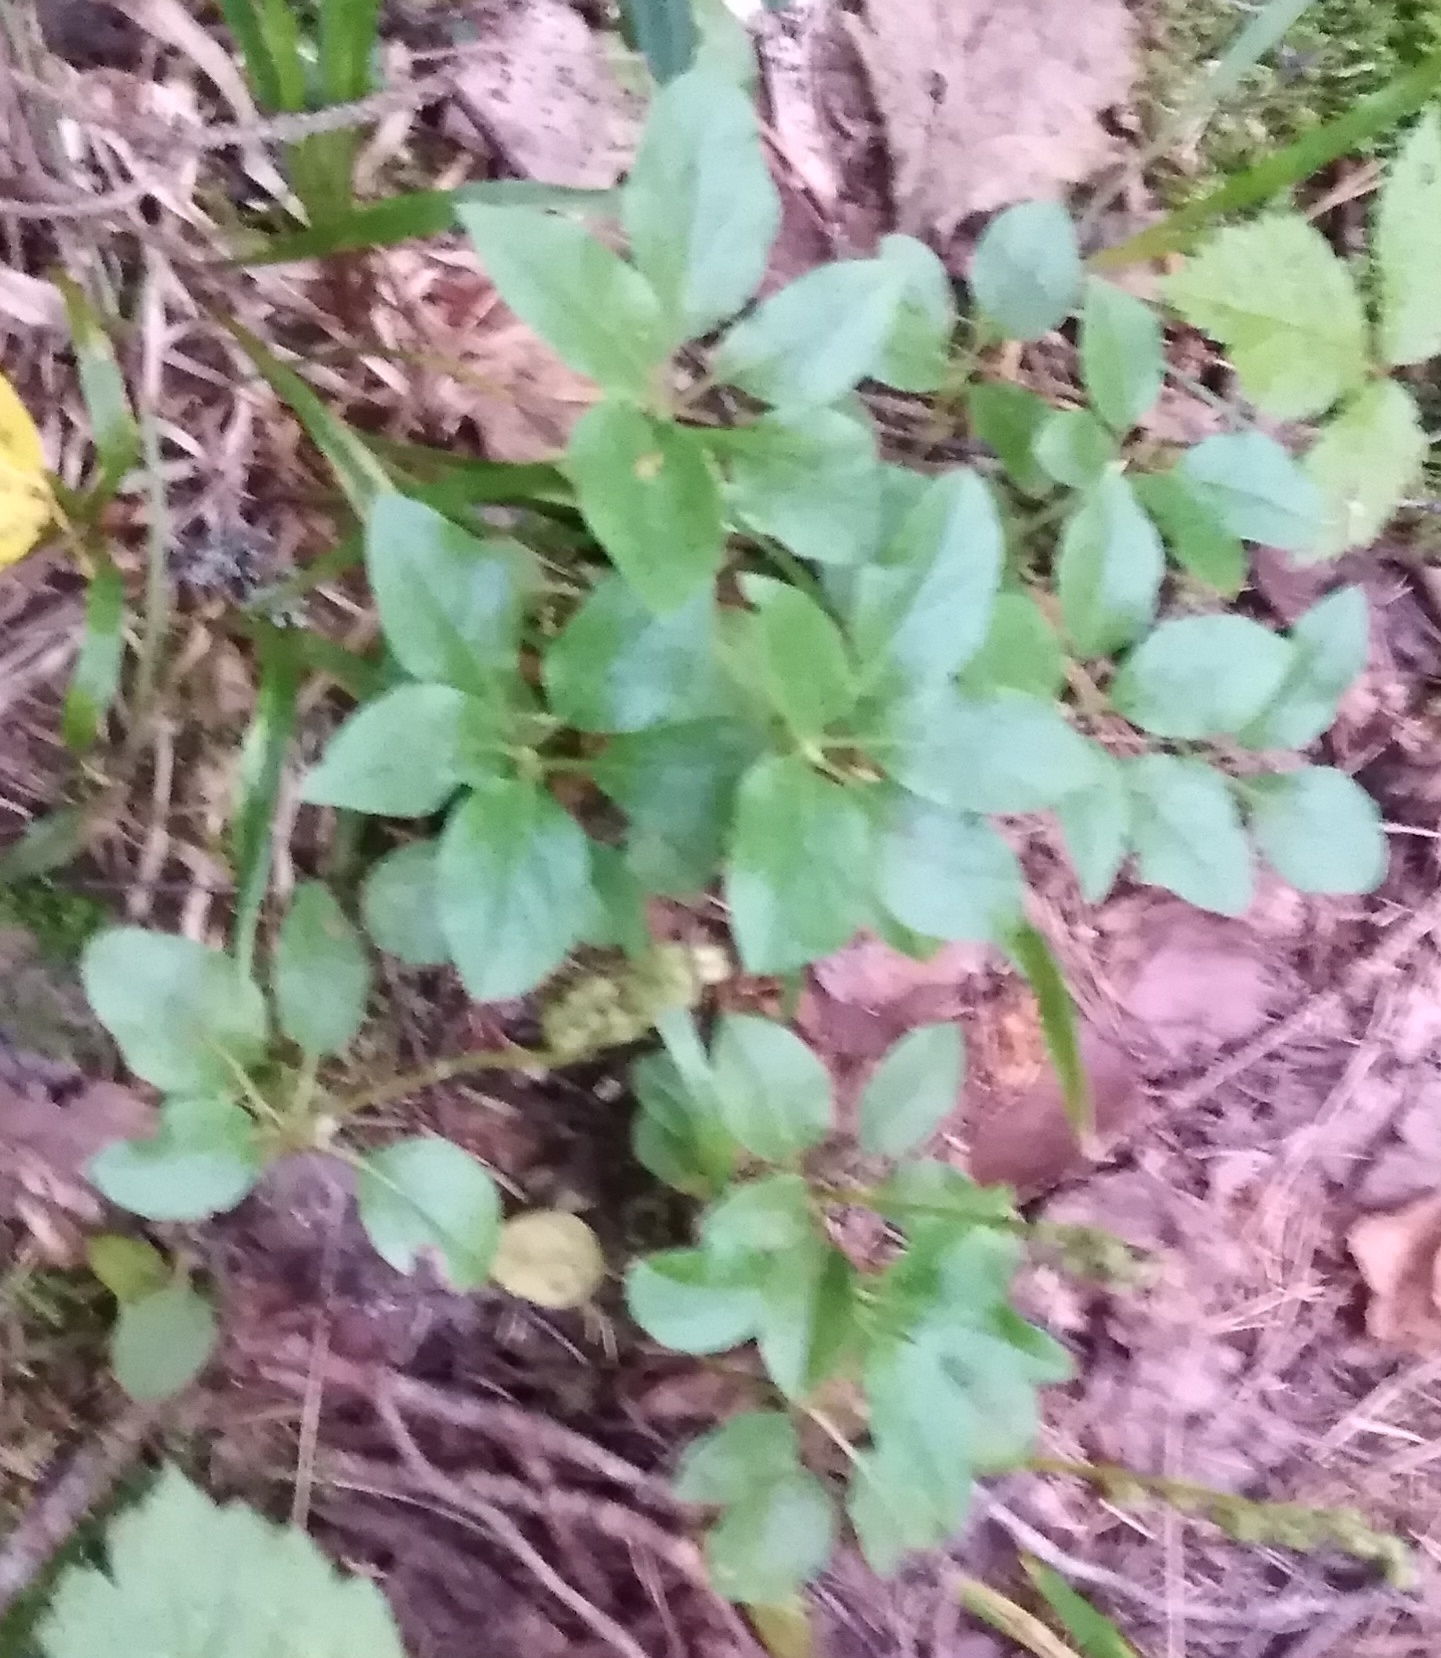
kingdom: Plantae
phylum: Tracheophyta
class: Magnoliopsida
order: Ericales
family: Ericaceae
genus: Orthilia
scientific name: Orthilia secunda
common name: One-sided orthilia
